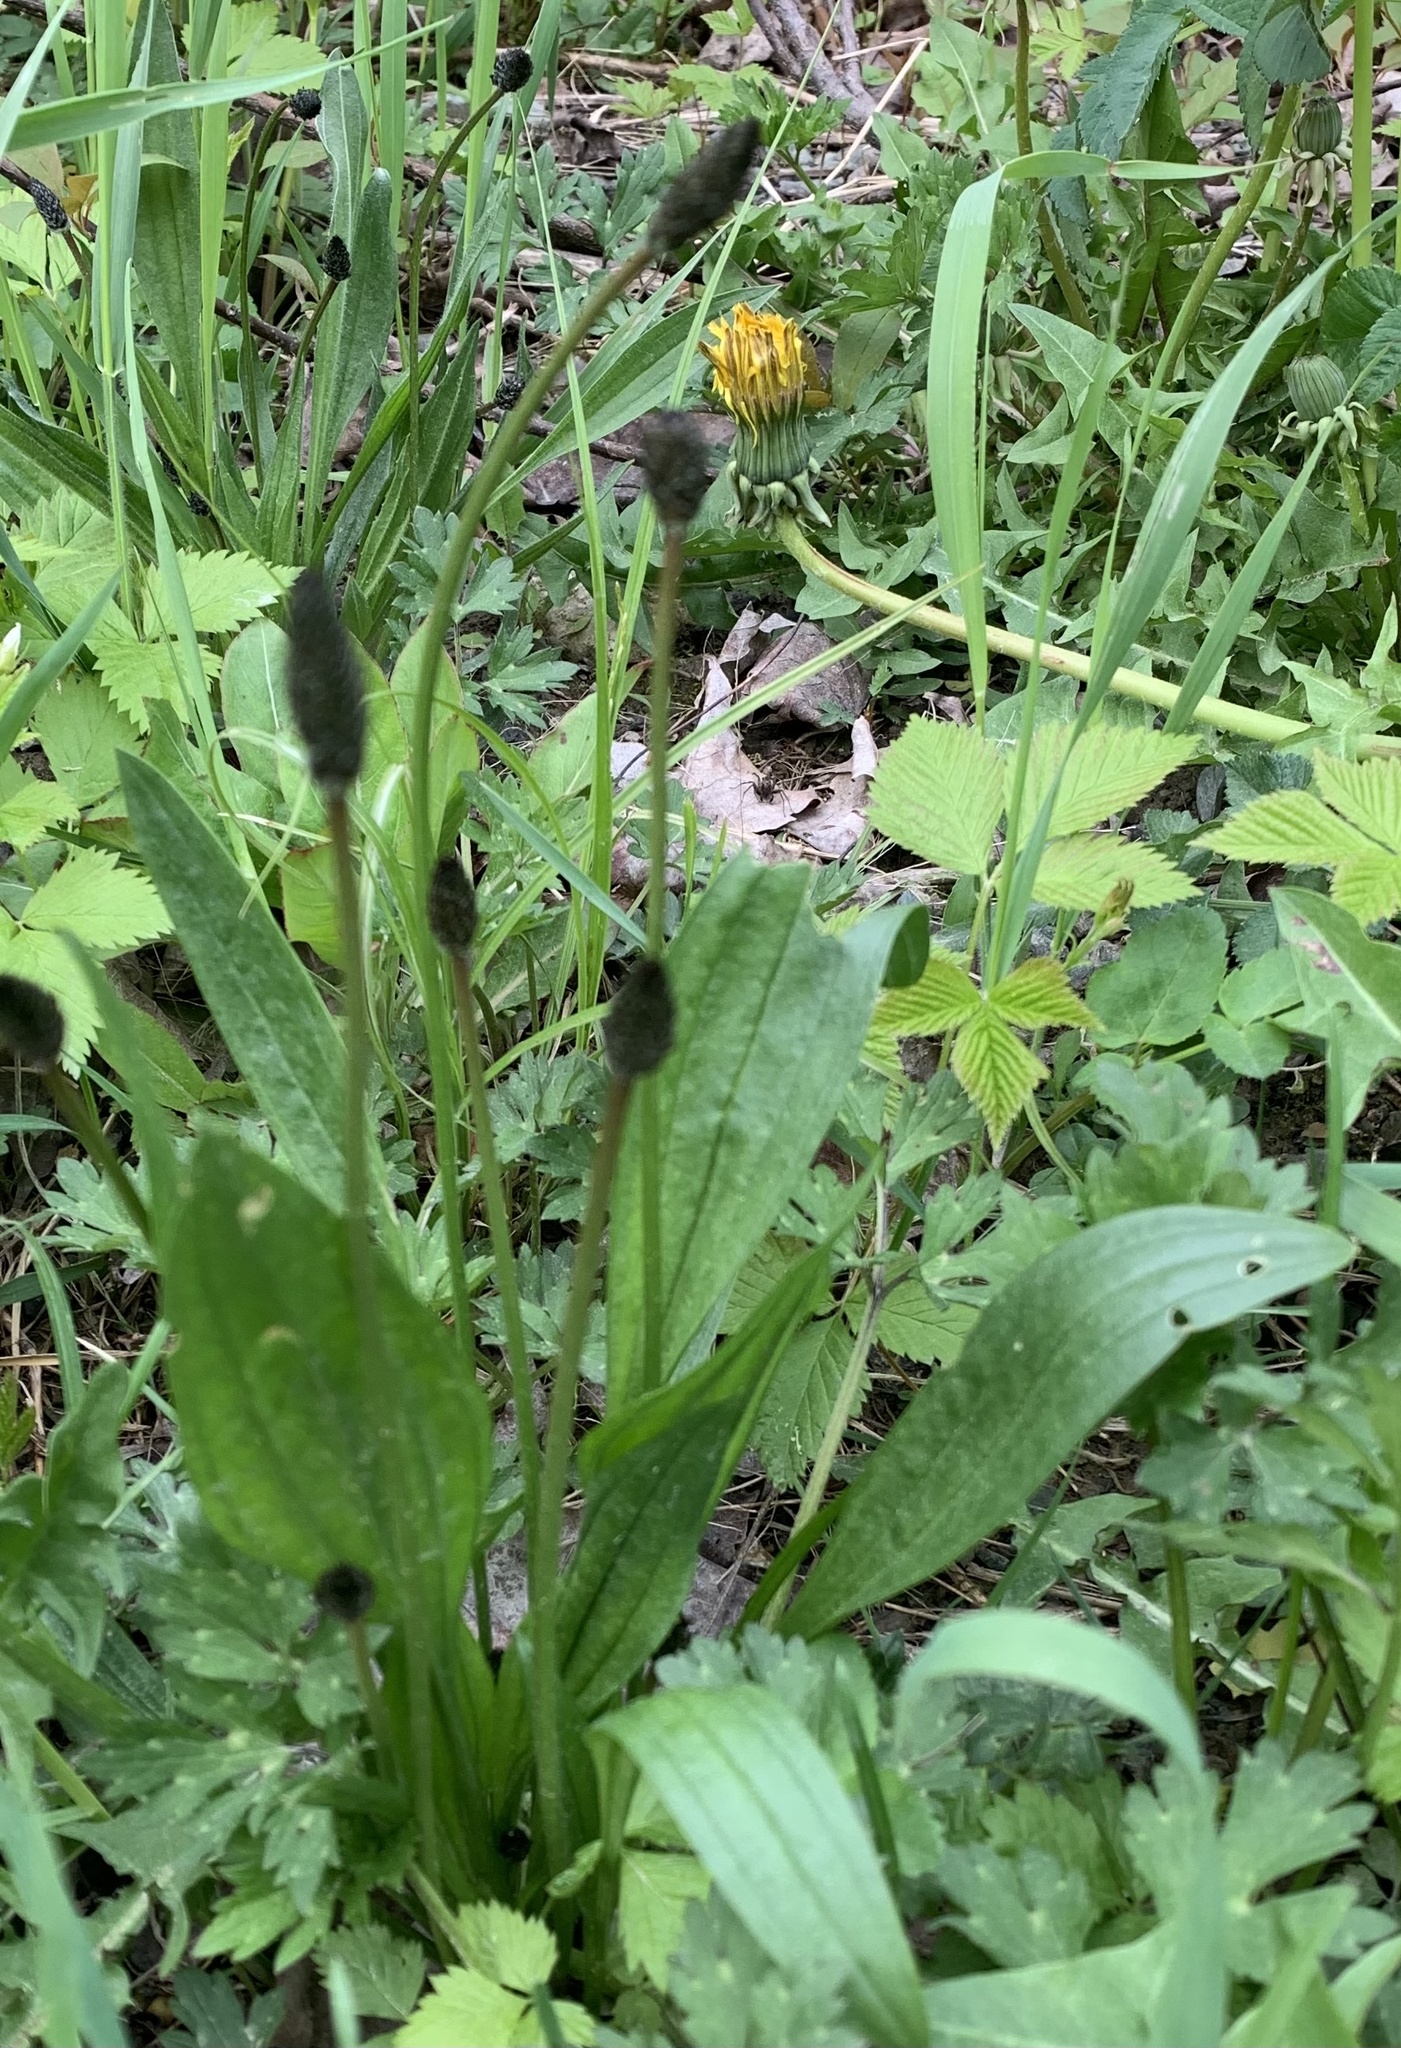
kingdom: Plantae
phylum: Tracheophyta
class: Magnoliopsida
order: Lamiales
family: Plantaginaceae
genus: Plantago
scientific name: Plantago lanceolata
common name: Ribwort plantain
